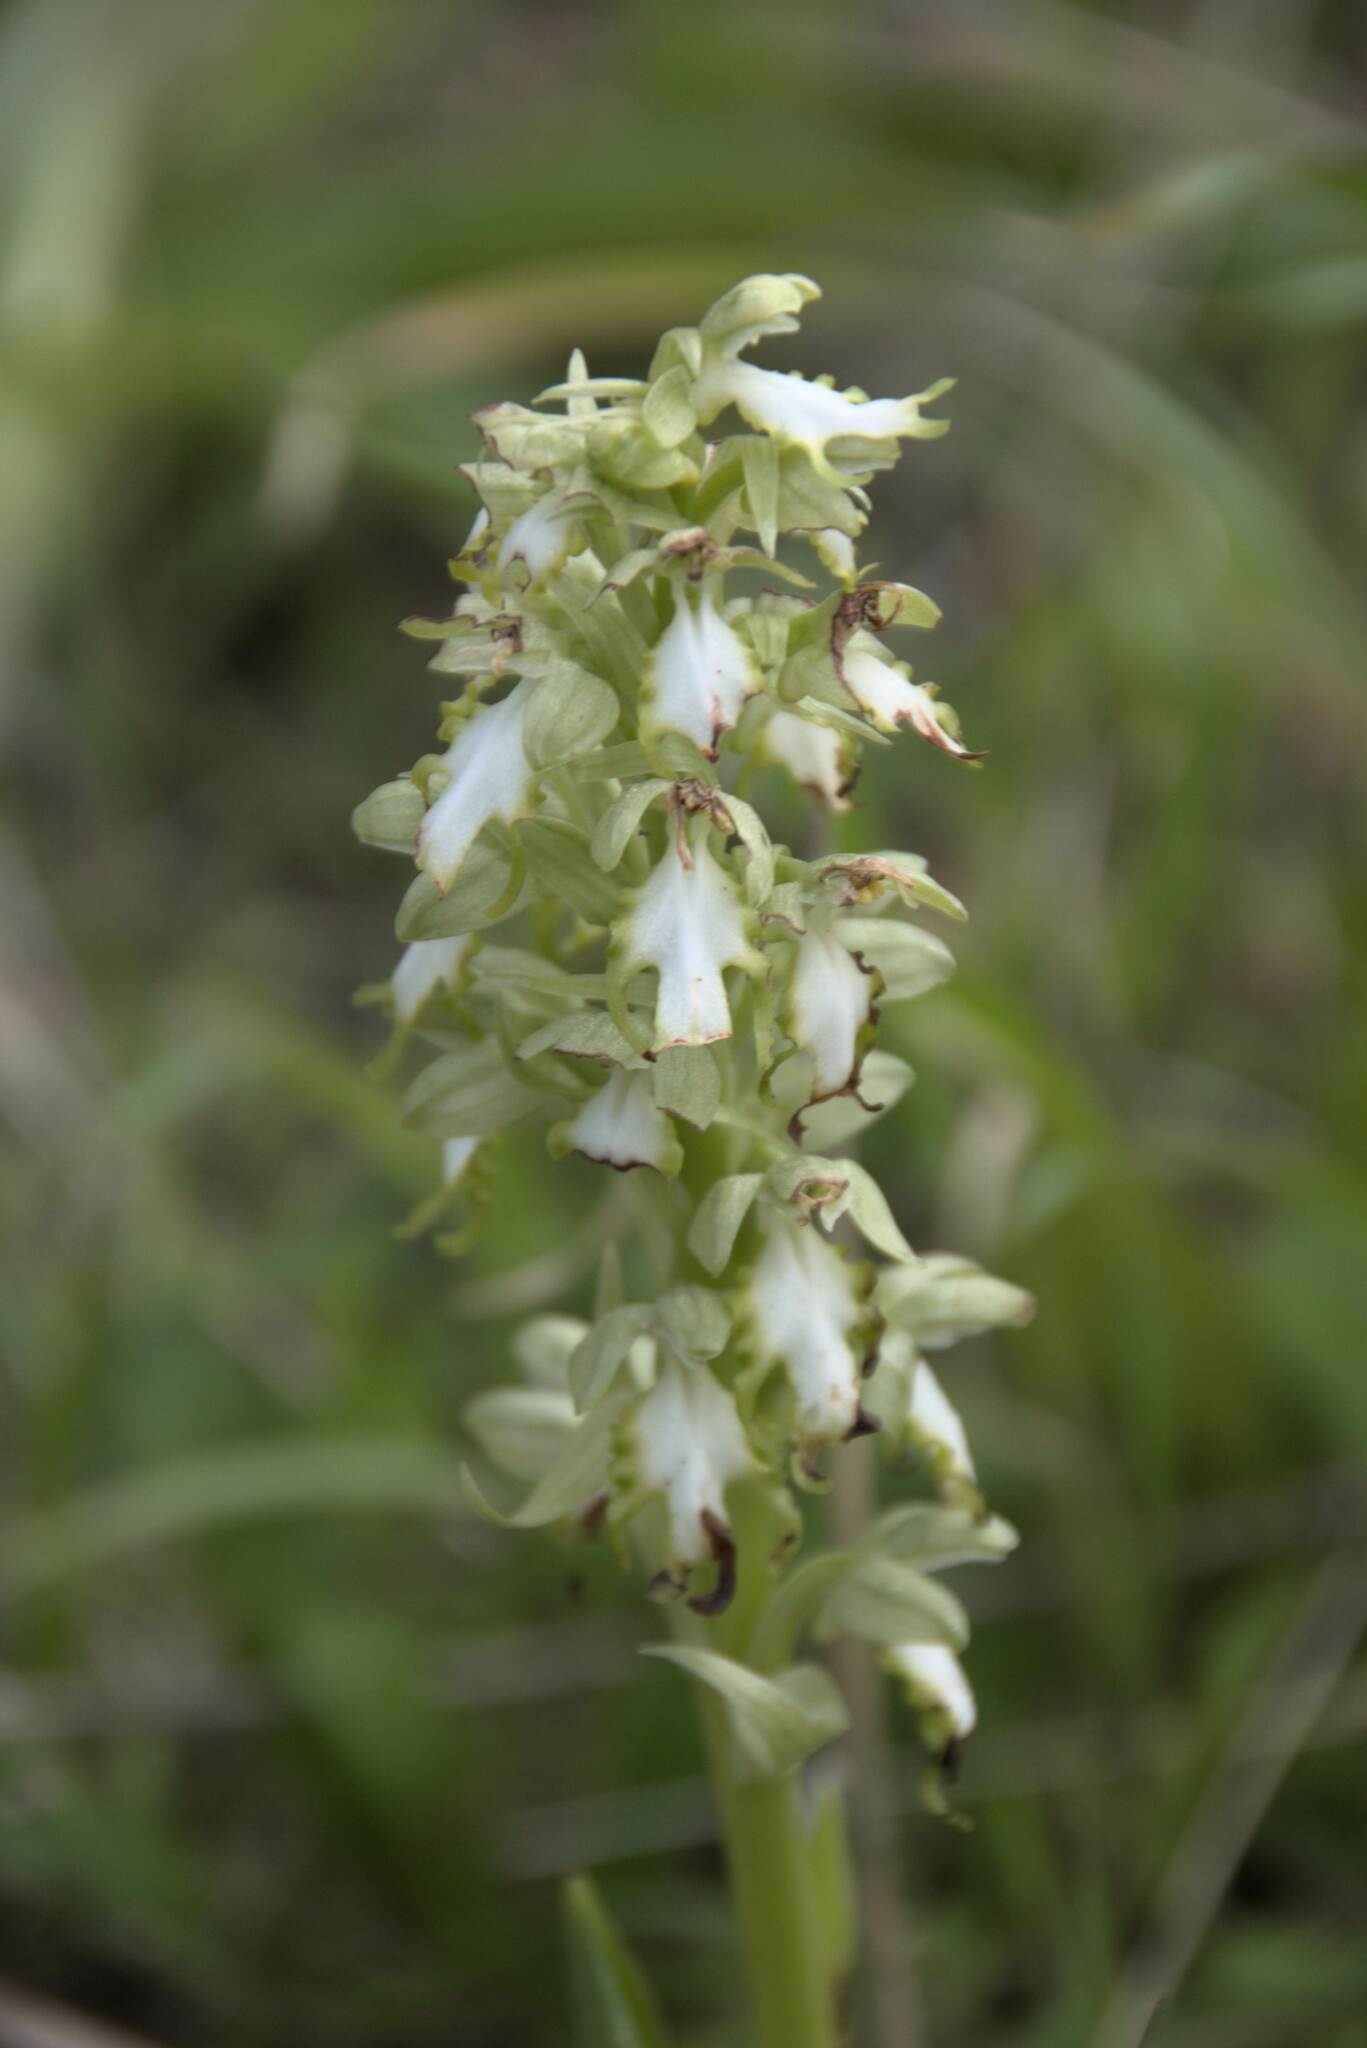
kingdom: Plantae
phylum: Tracheophyta
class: Liliopsida
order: Asparagales
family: Orchidaceae
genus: Himantoglossum
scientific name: Himantoglossum robertianum
